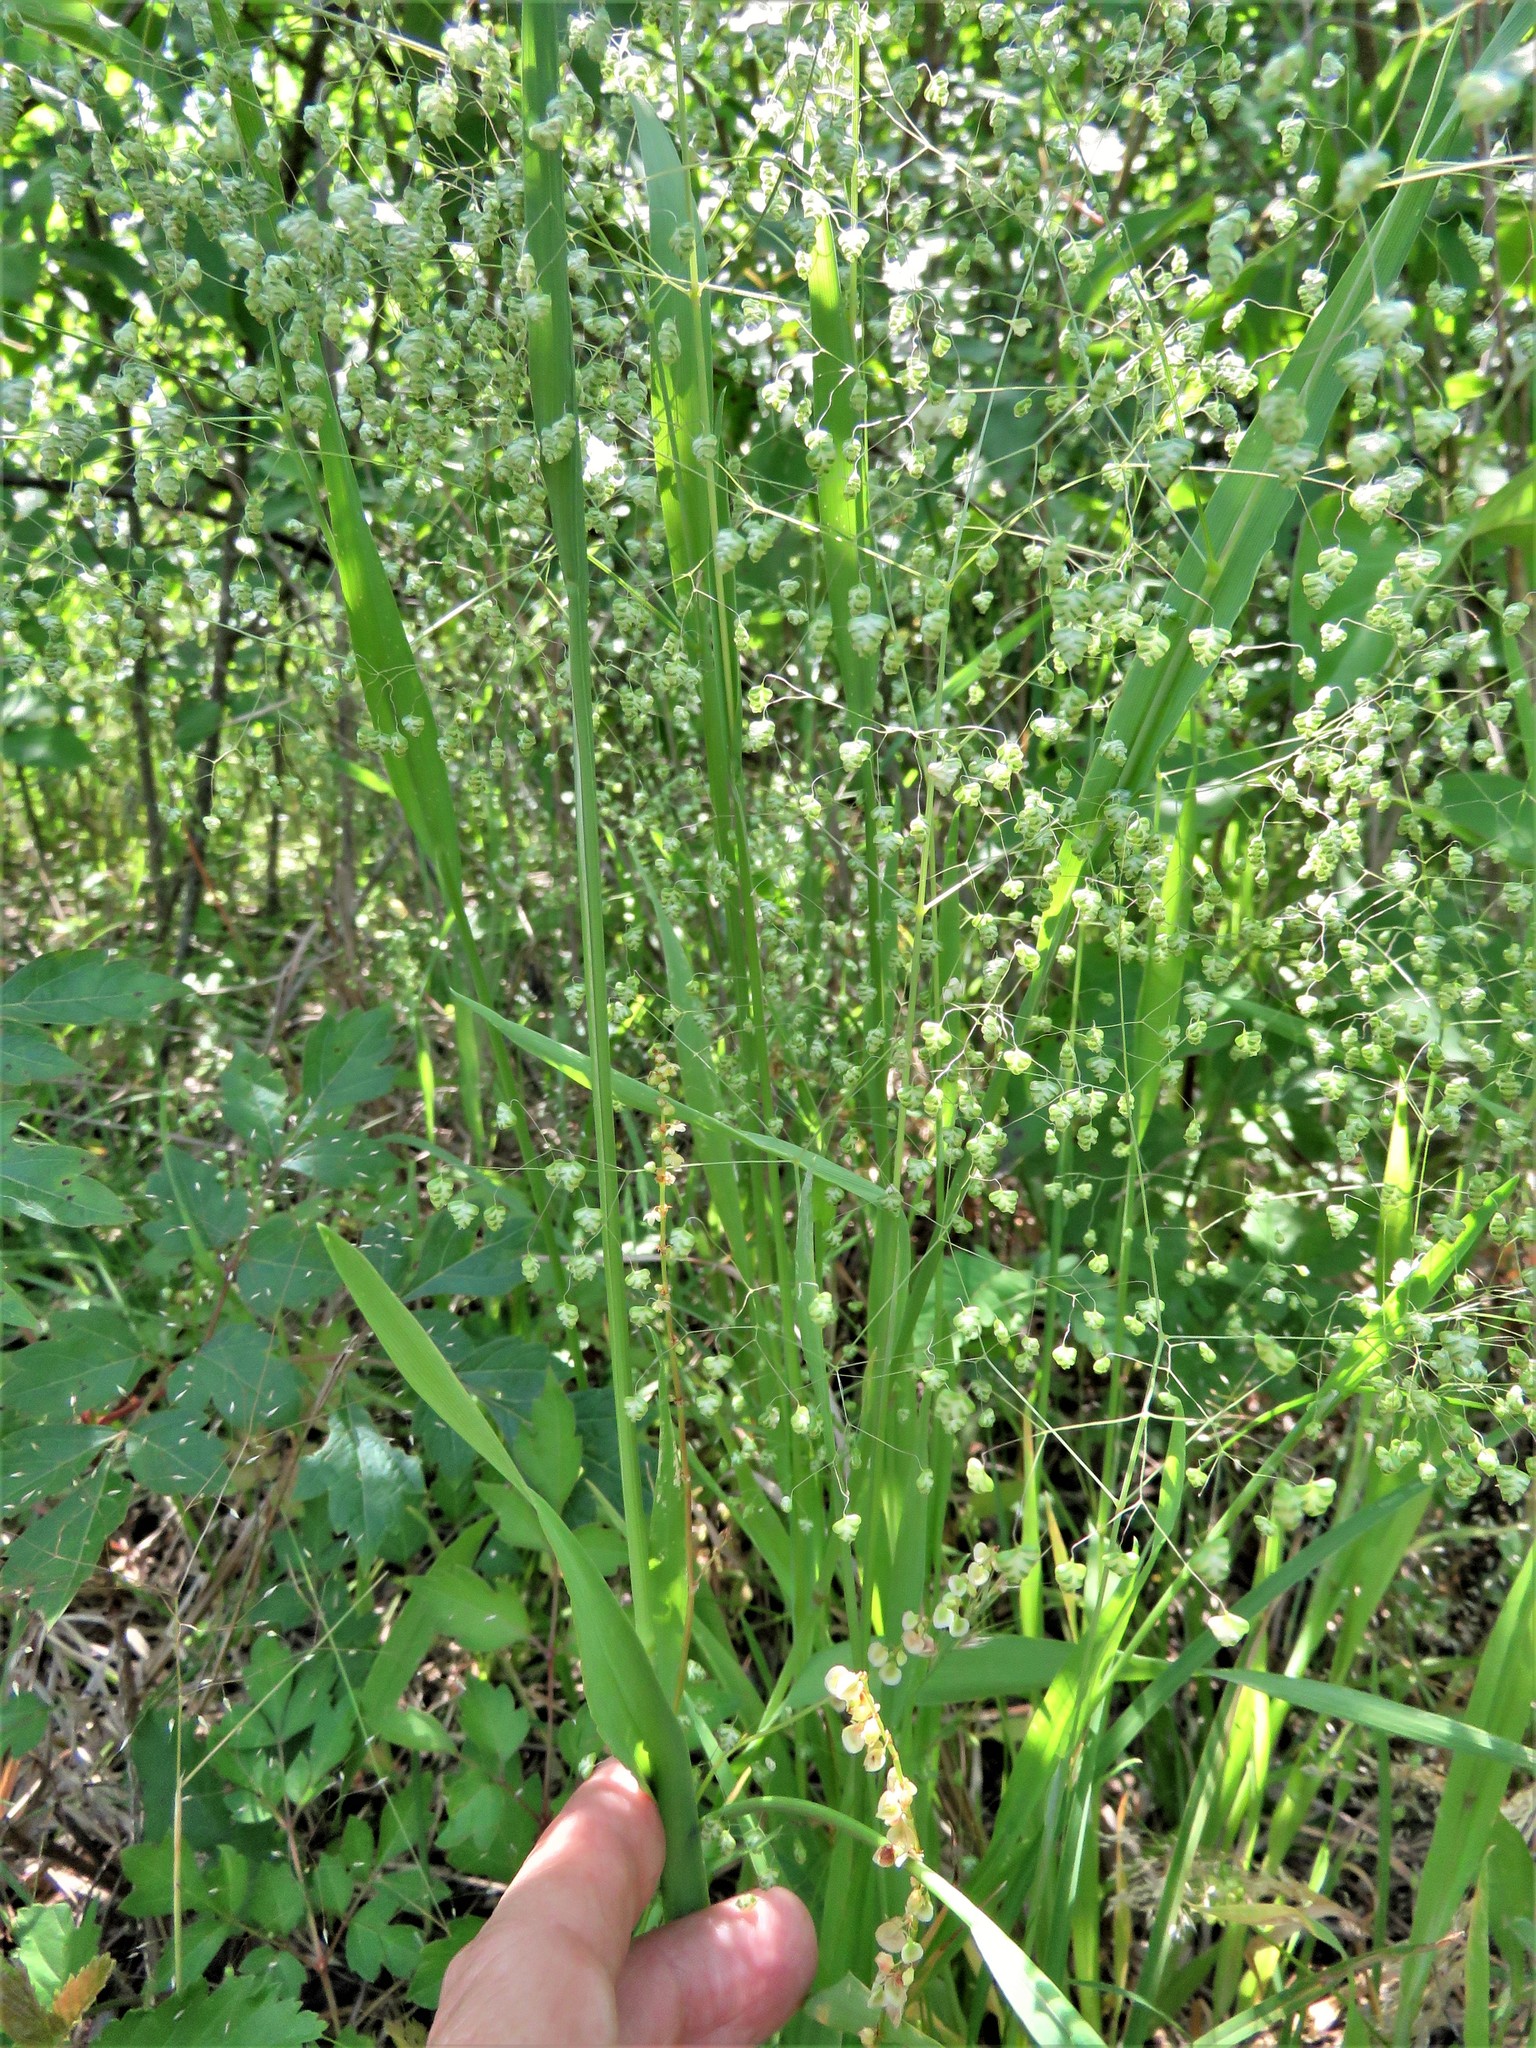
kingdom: Plantae
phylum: Tracheophyta
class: Liliopsida
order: Poales
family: Poaceae
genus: Briza
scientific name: Briza minor
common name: Lesser quaking-grass
